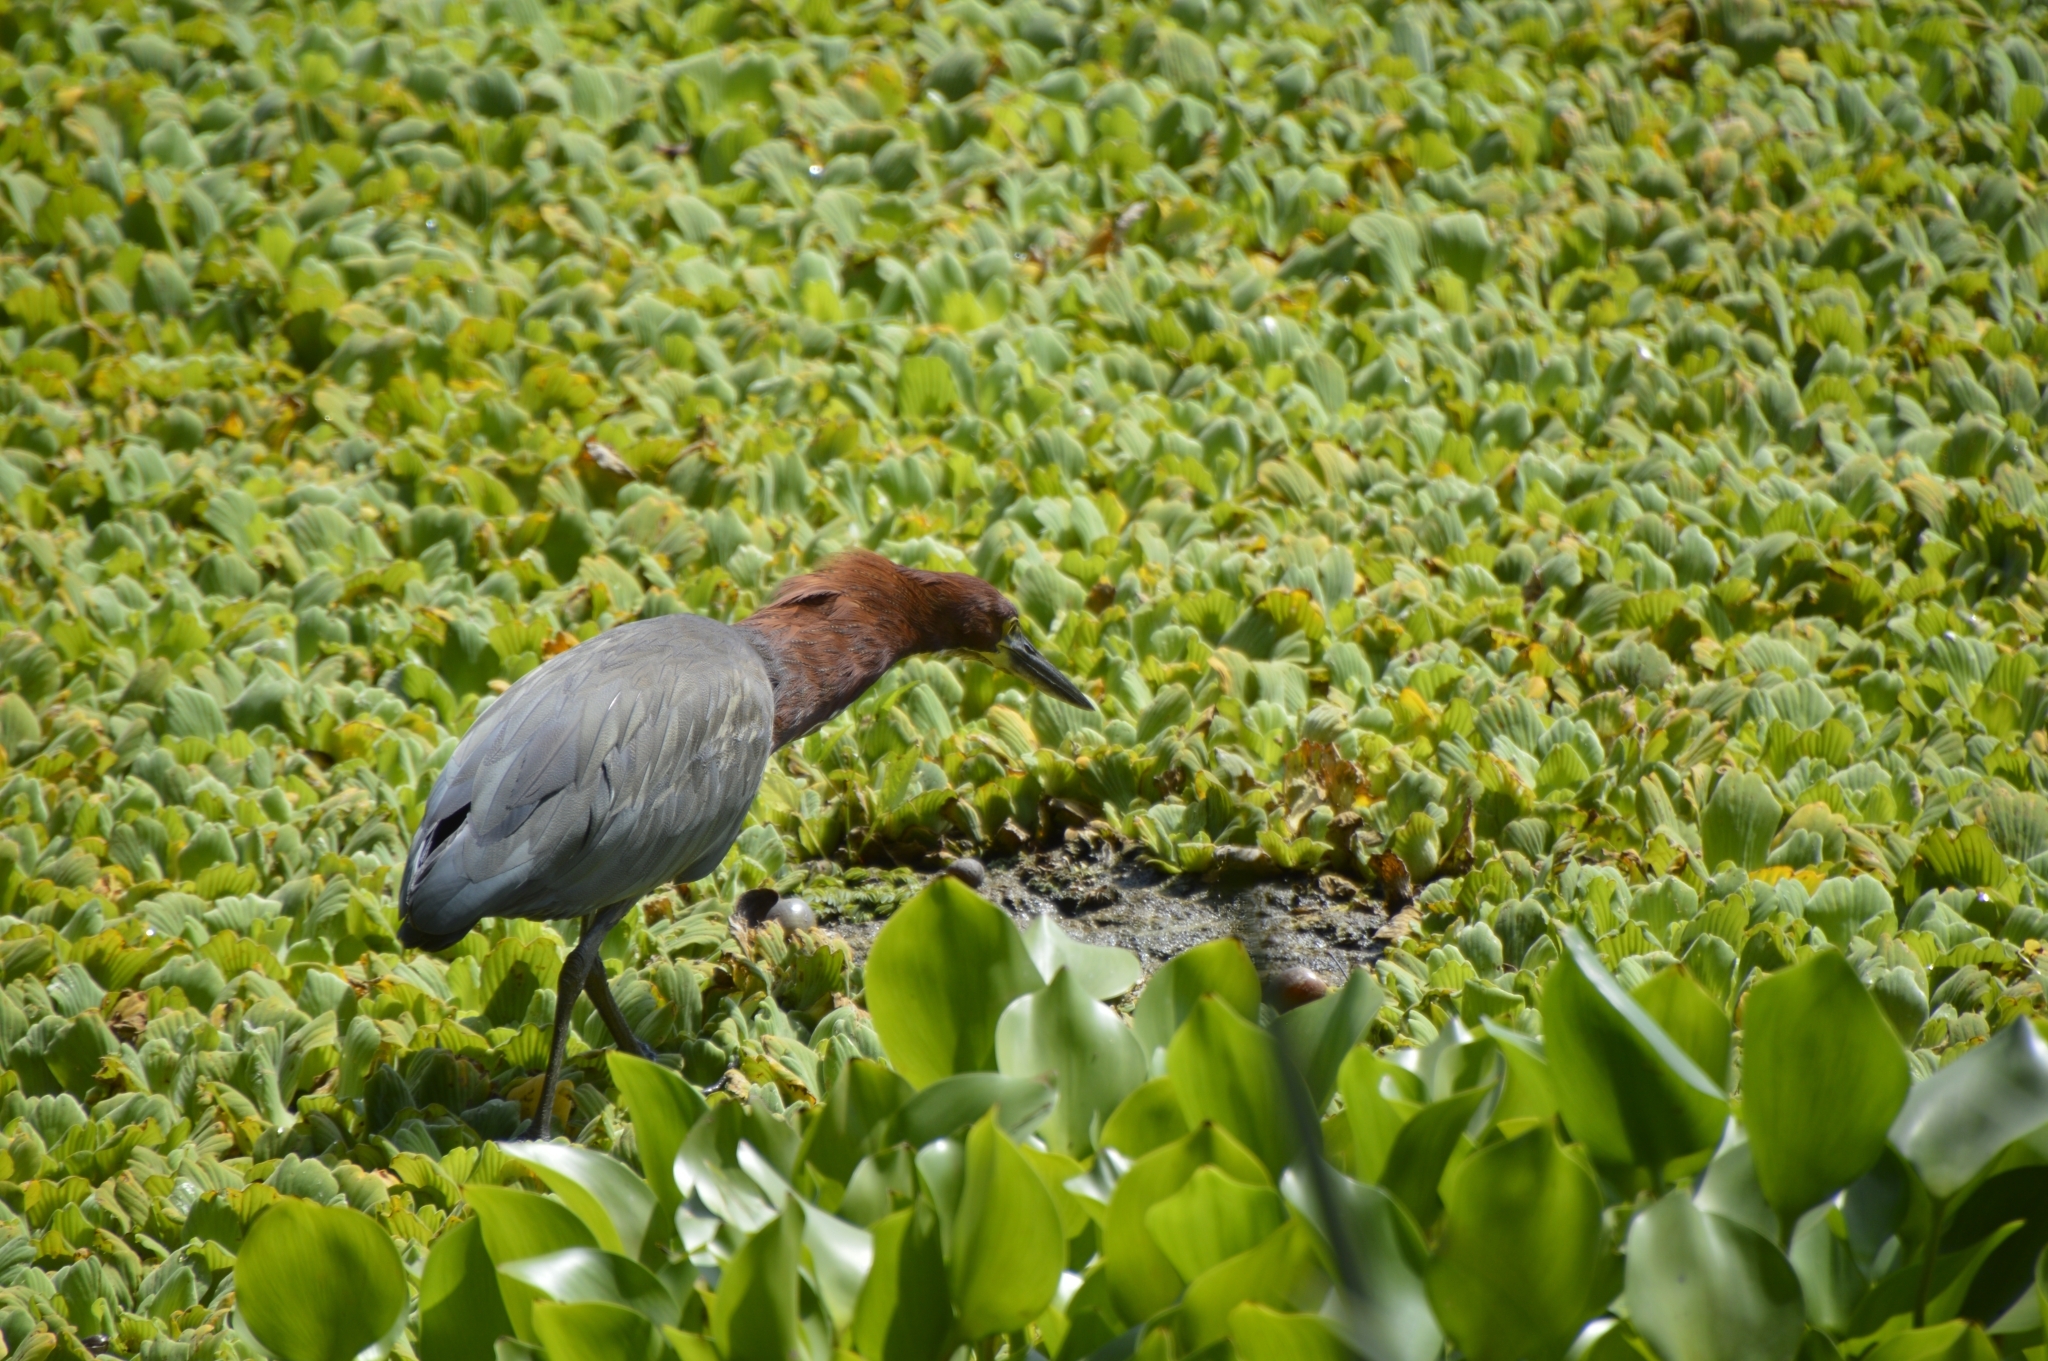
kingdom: Animalia
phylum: Chordata
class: Aves
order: Pelecaniformes
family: Ardeidae
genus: Tigrisoma
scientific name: Tigrisoma lineatum
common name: Rufescent tiger-heron
